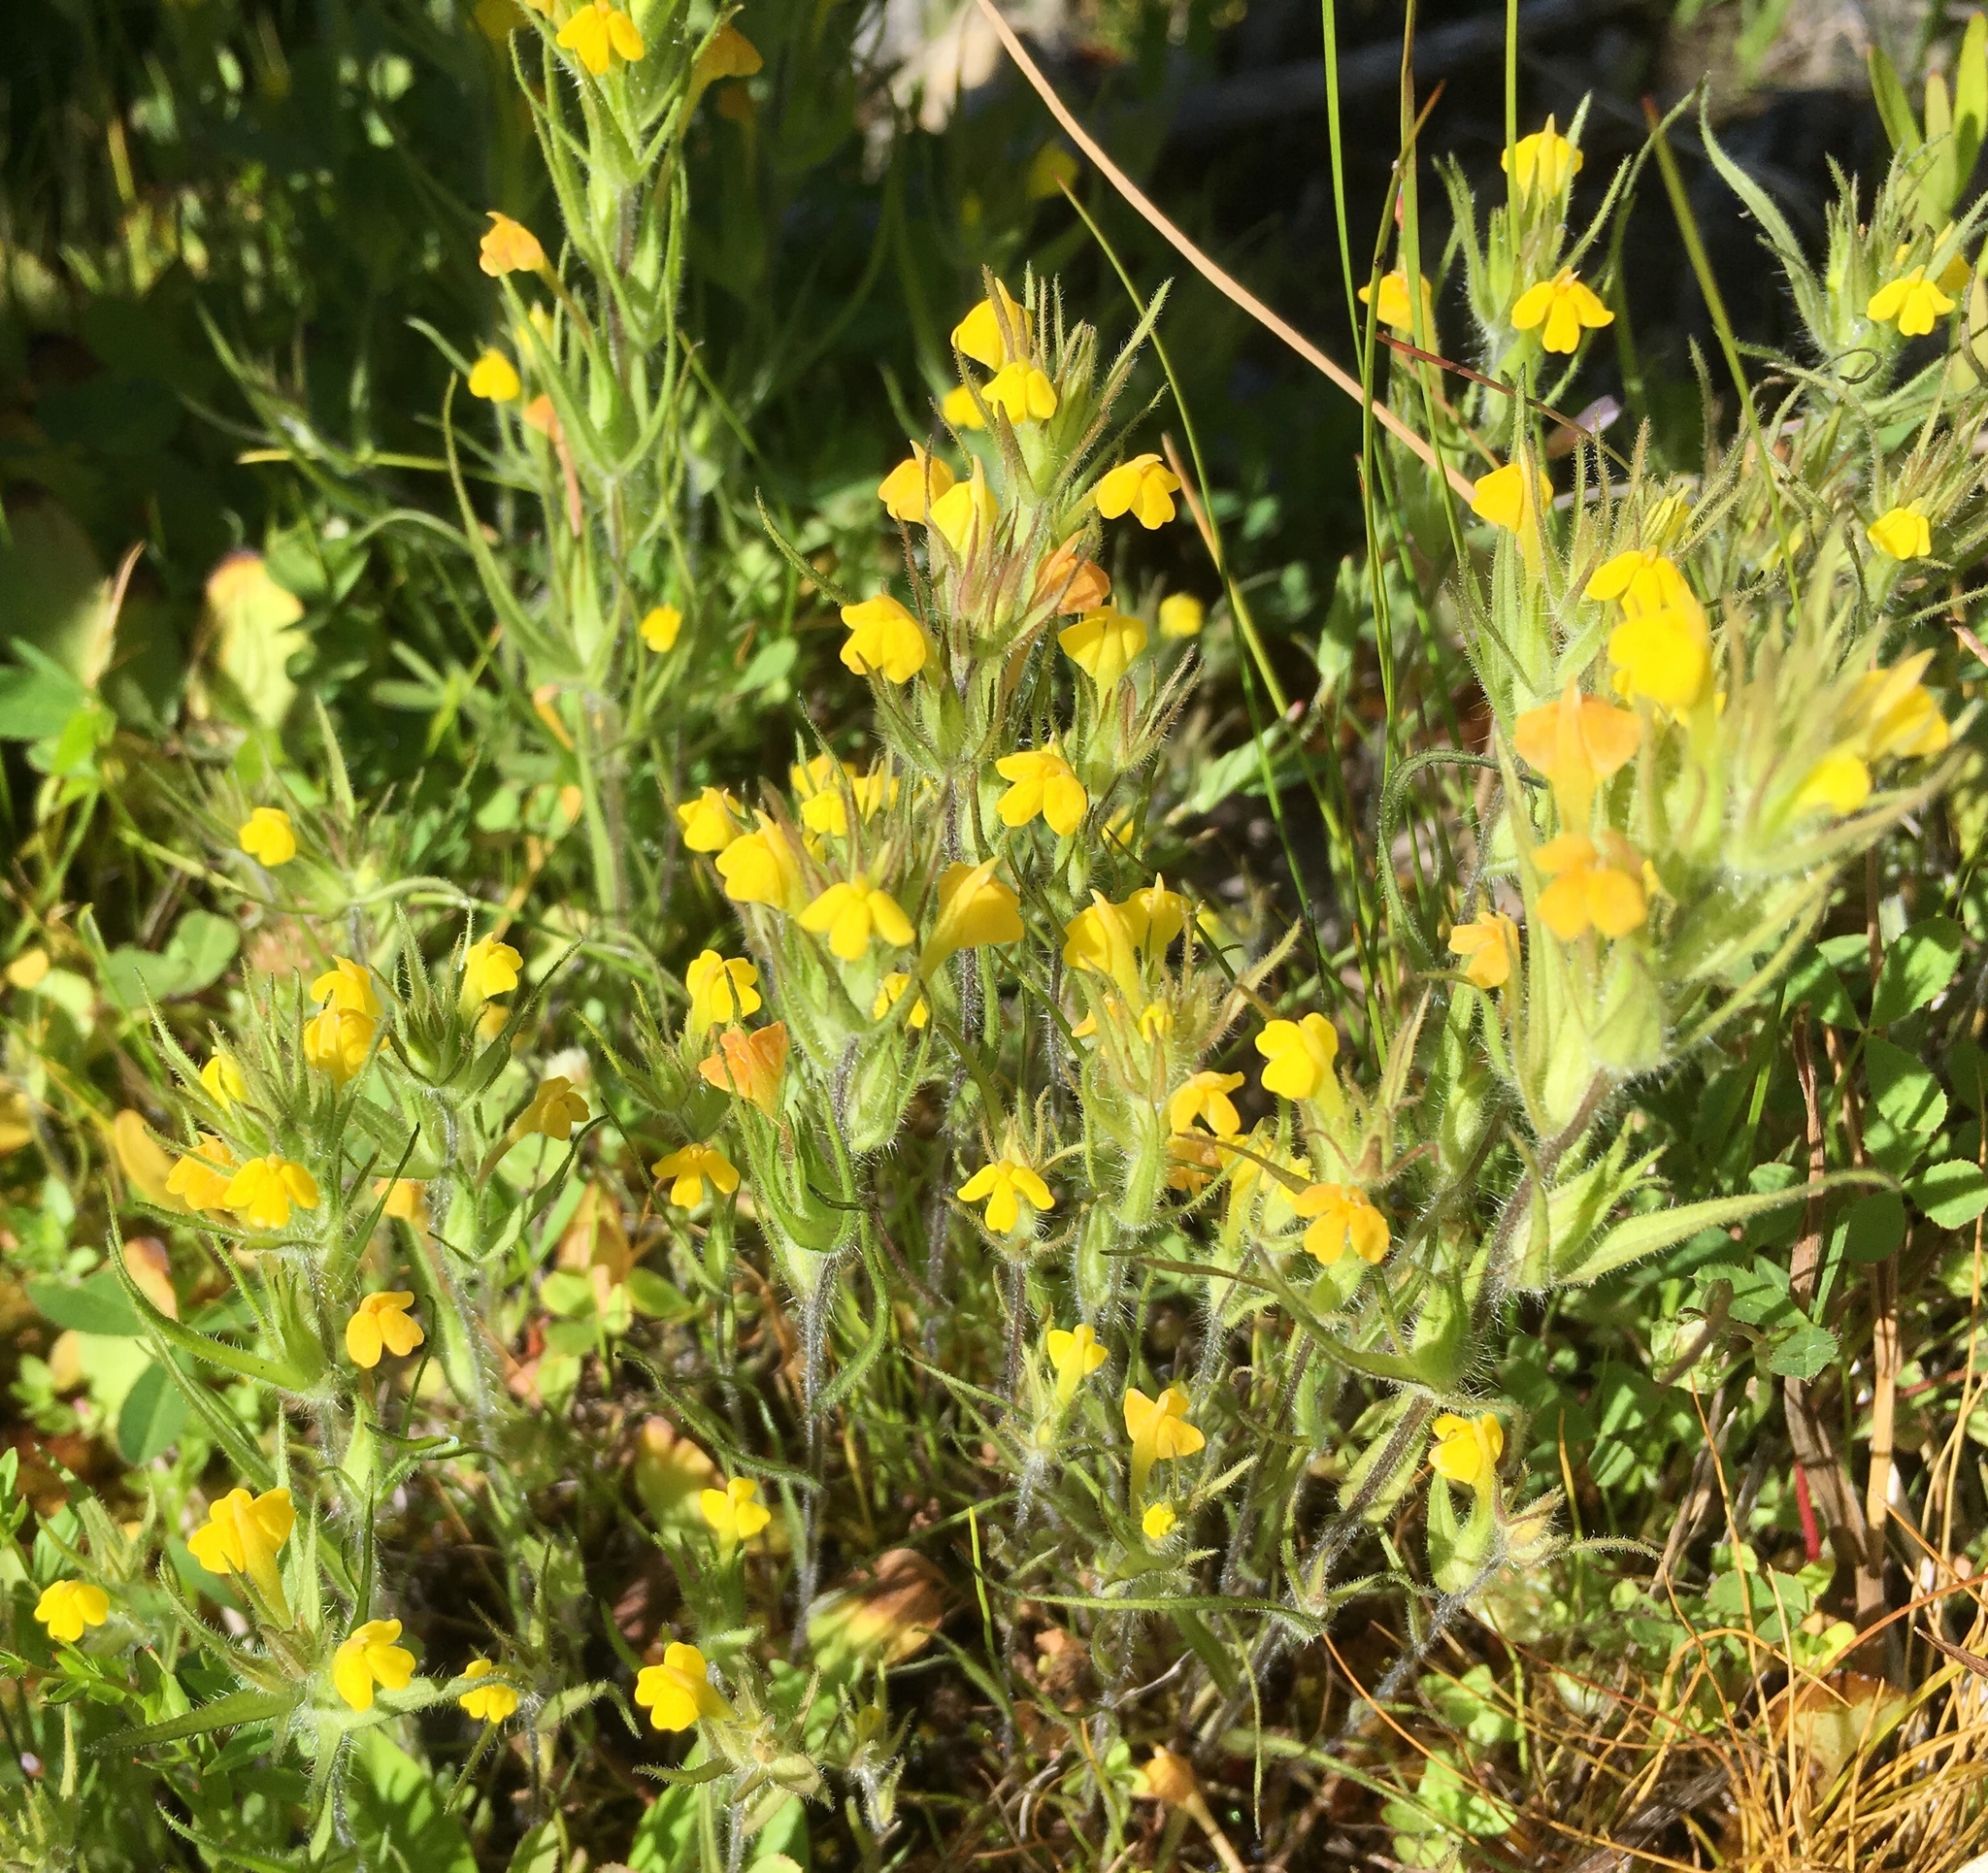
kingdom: Plantae
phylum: Tracheophyta
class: Magnoliopsida
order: Lamiales
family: Orobanchaceae
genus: Bellardia
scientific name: Bellardia viscosa
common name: Sticky parentucellia
